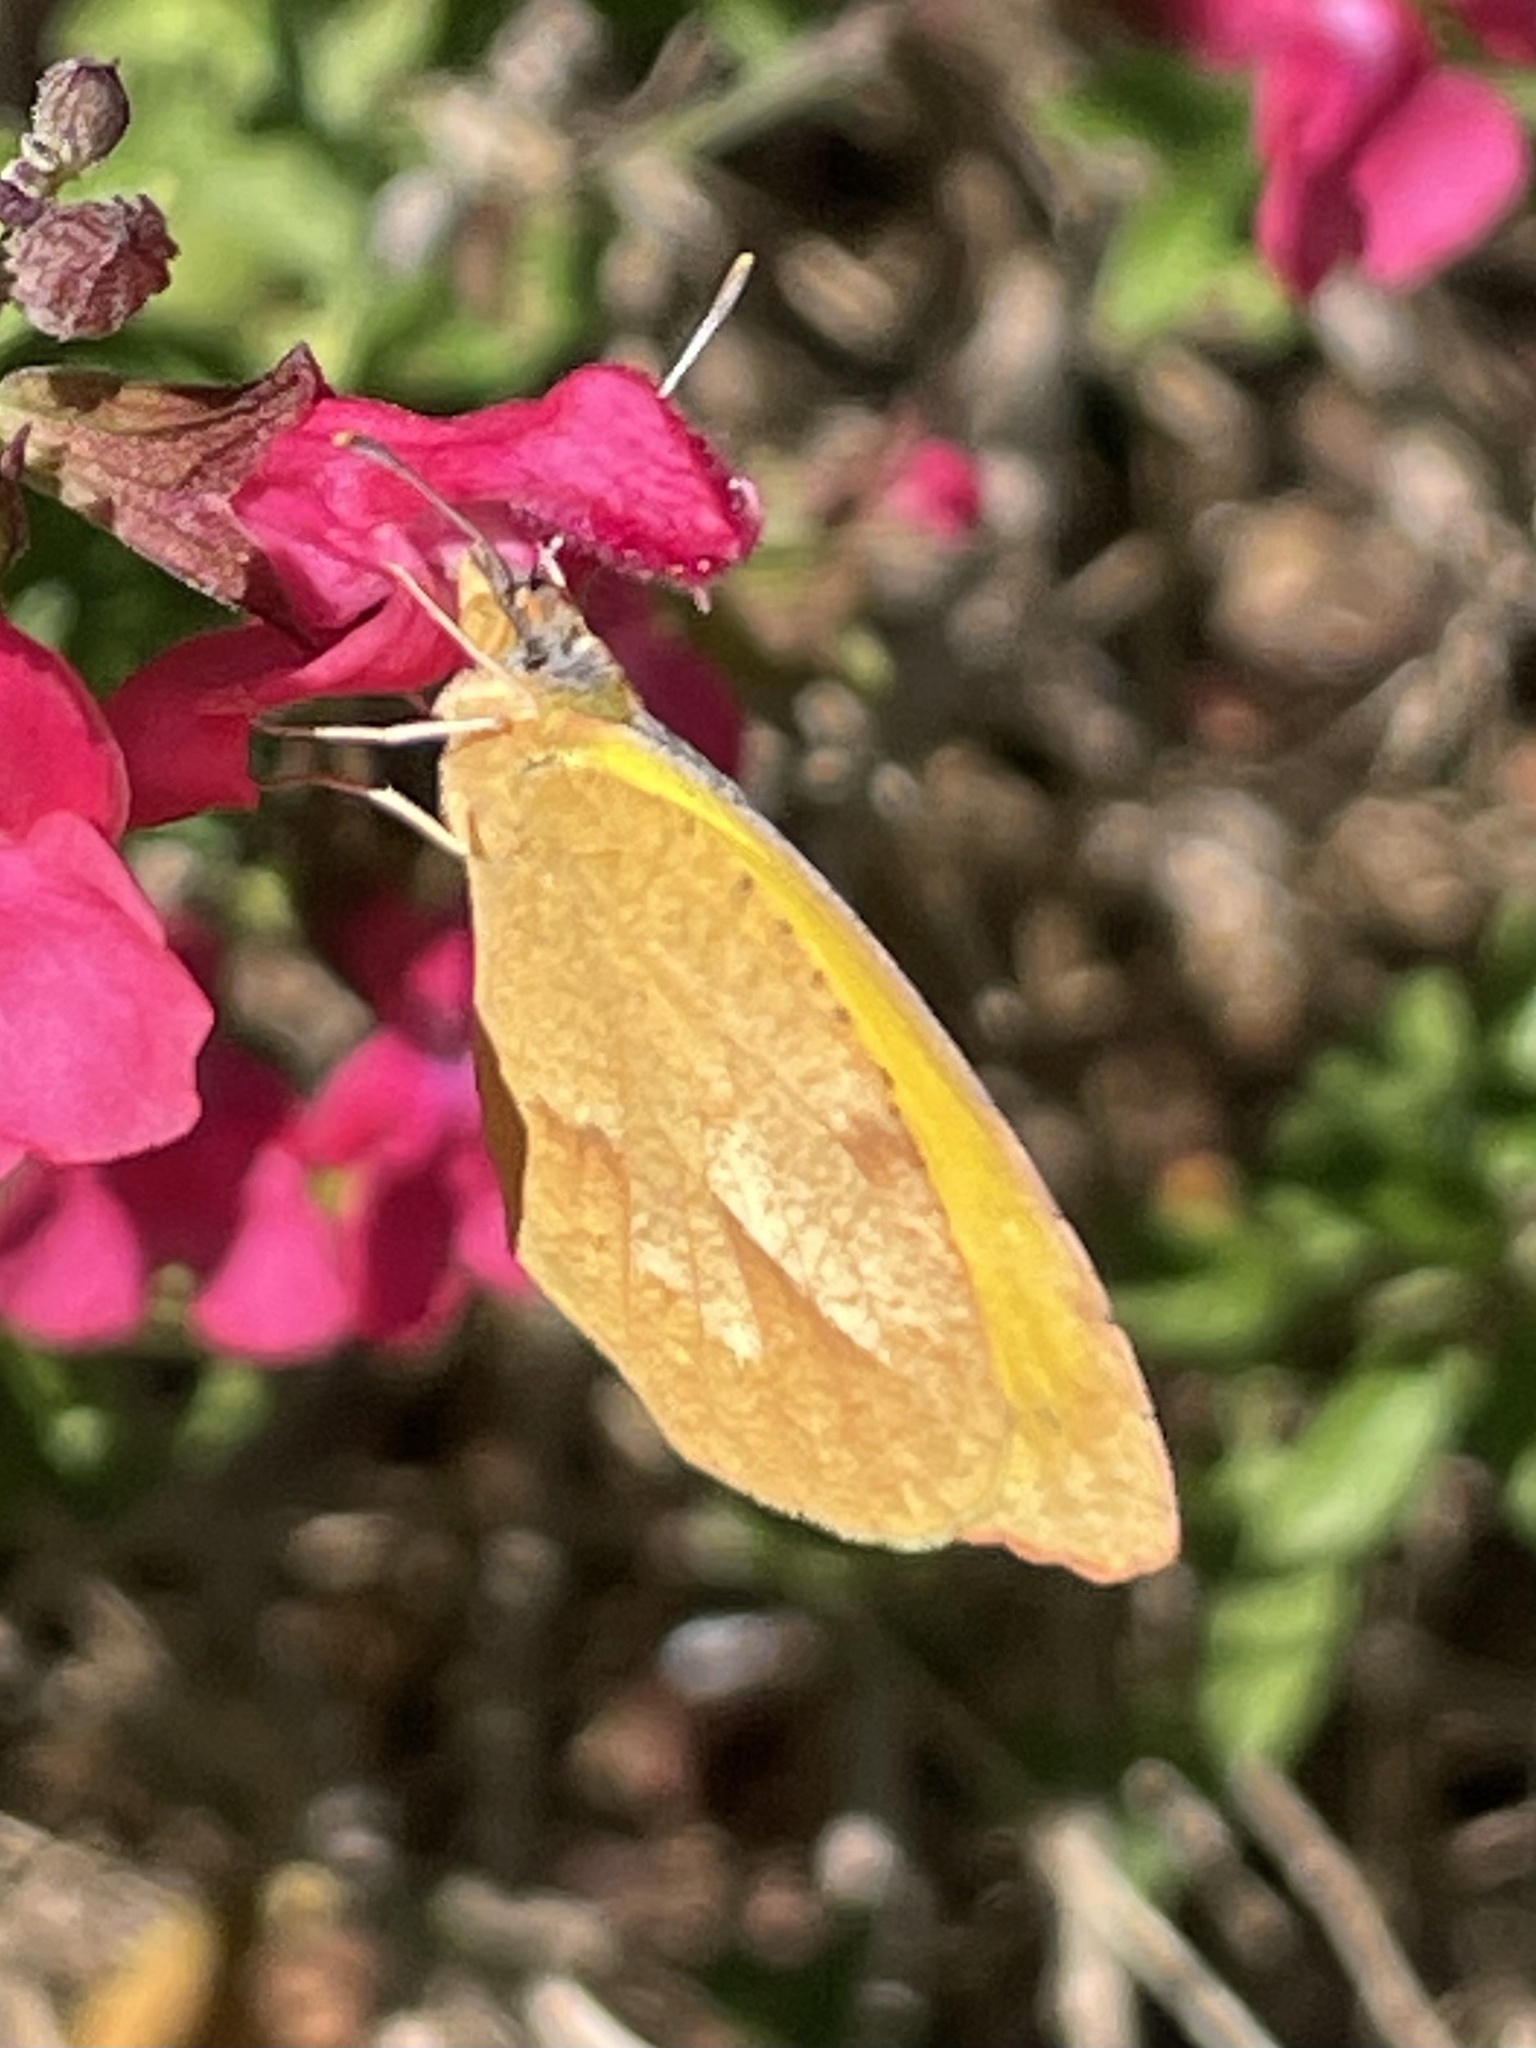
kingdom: Animalia
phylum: Arthropoda
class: Insecta
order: Lepidoptera
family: Pieridae
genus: Abaeis
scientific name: Abaeis nicippe
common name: Sleepy orange
